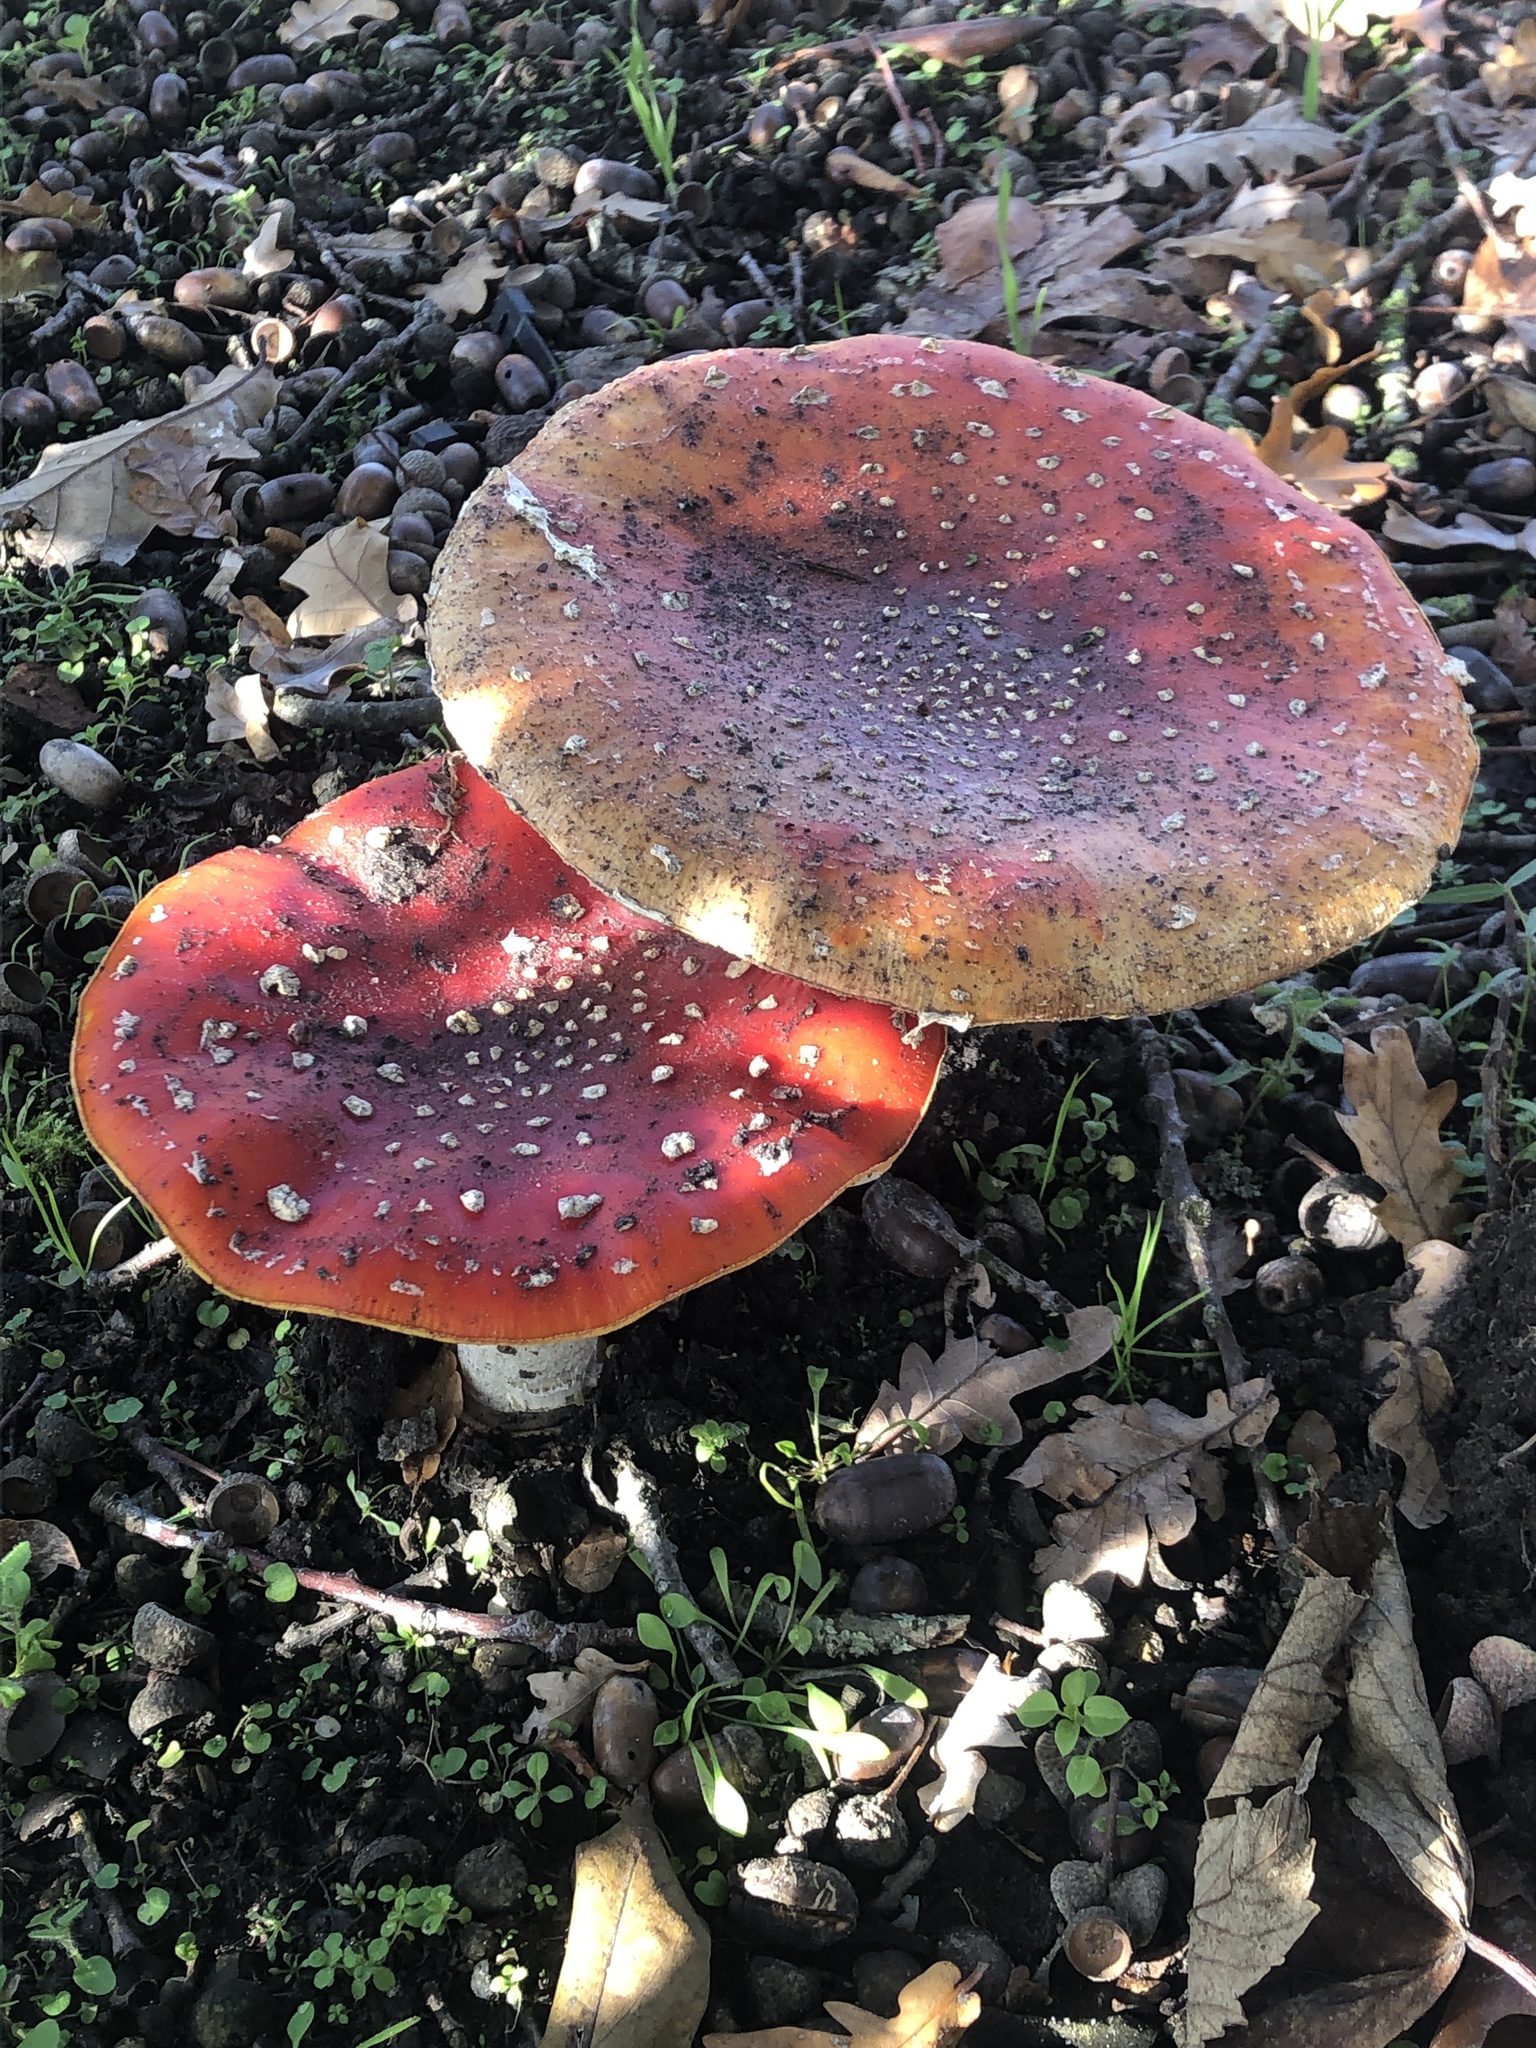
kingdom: Fungi
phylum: Basidiomycota
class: Agaricomycetes
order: Agaricales
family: Amanitaceae
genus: Amanita
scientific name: Amanita muscaria
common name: Fly agaric
